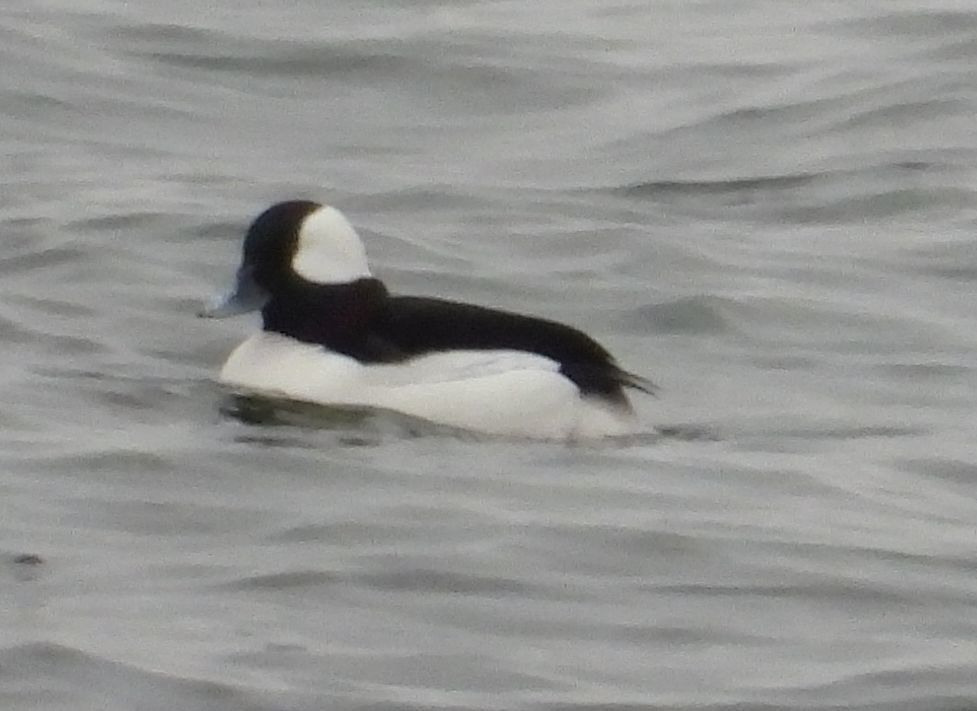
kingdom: Animalia
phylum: Chordata
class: Aves
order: Anseriformes
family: Anatidae
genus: Bucephala
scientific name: Bucephala albeola
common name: Bufflehead
